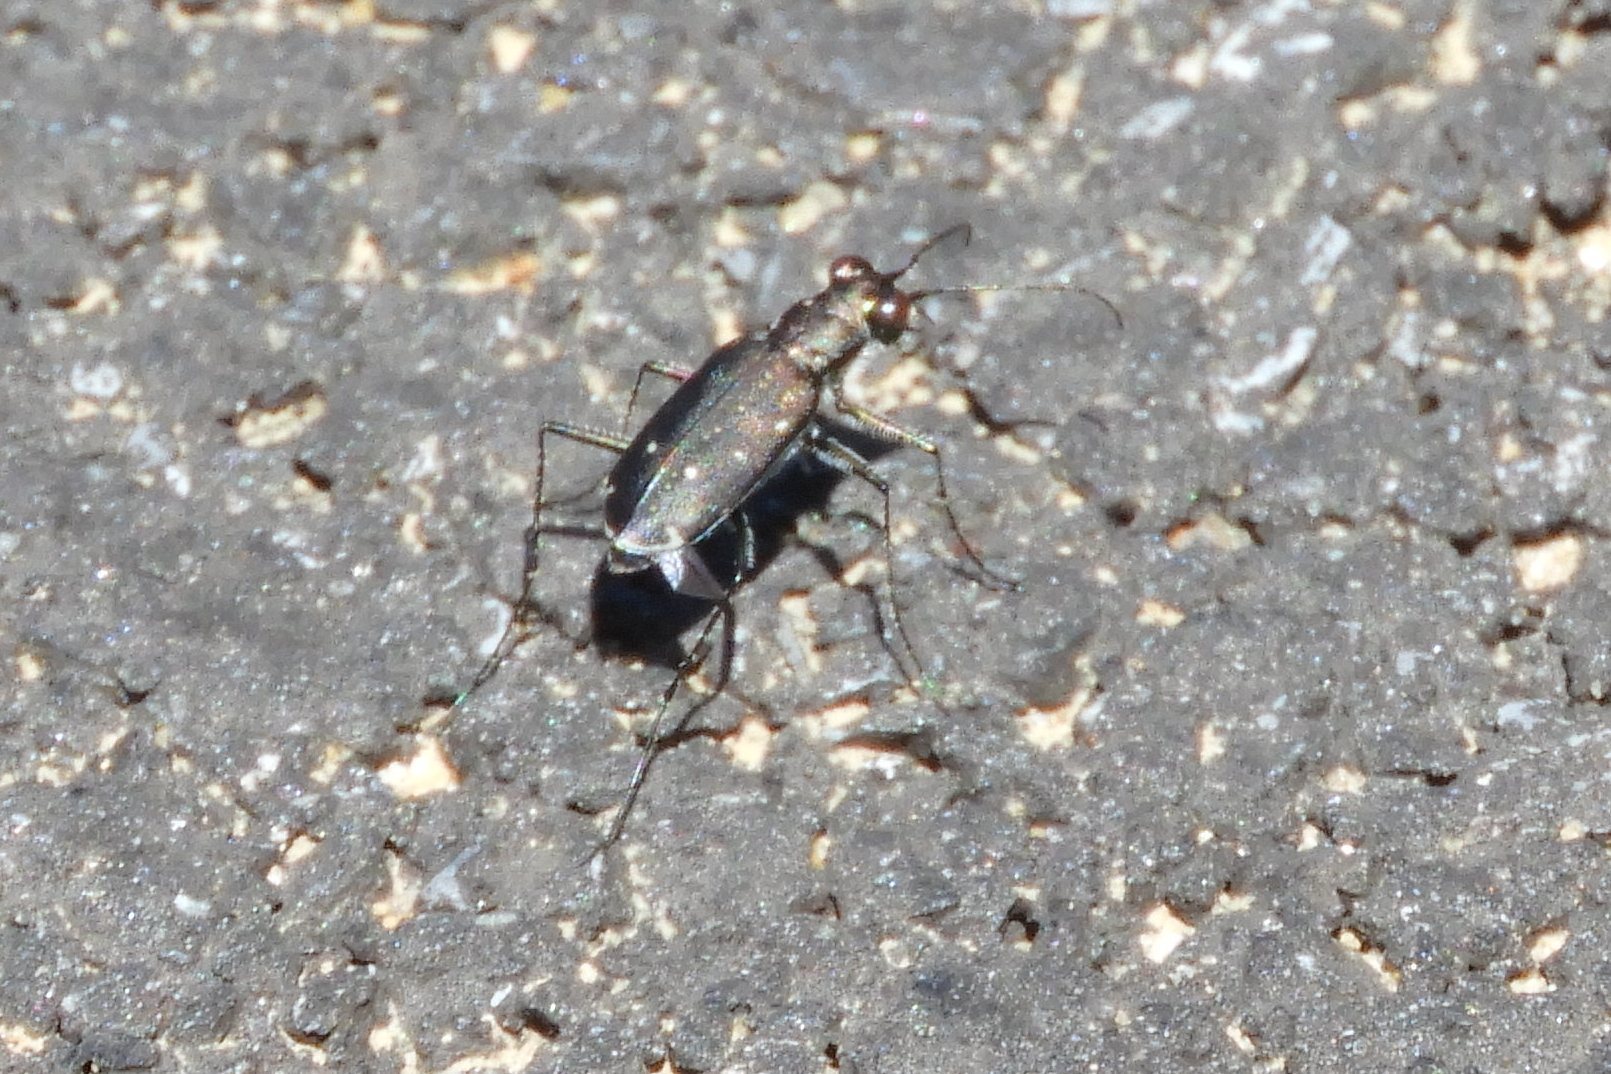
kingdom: Animalia
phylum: Arthropoda
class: Insecta
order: Coleoptera
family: Carabidae
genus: Cicindela
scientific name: Cicindela punctulata
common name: Punctured tiger beetle
